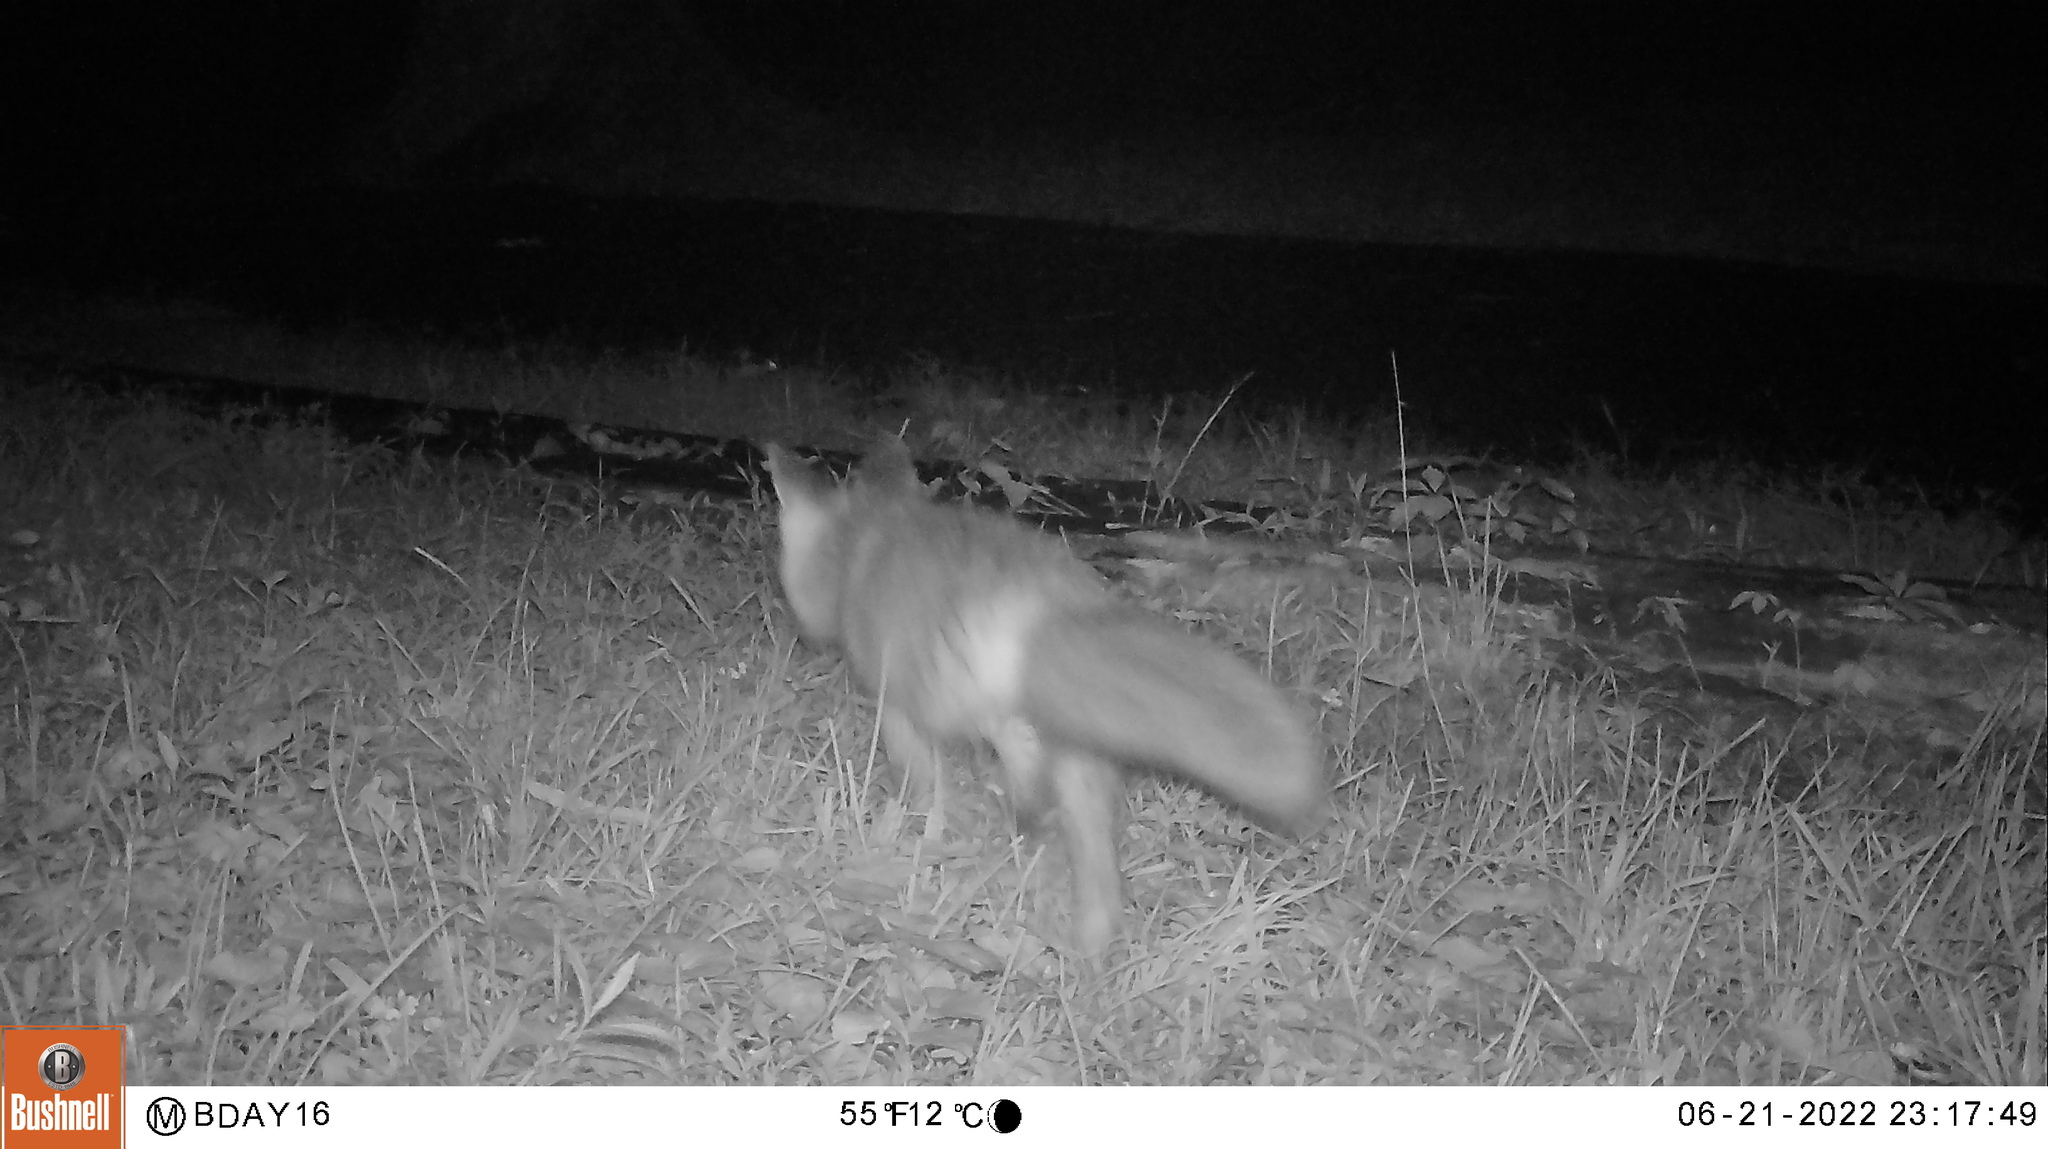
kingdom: Animalia
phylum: Chordata
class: Mammalia
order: Carnivora
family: Canidae
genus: Vulpes
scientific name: Vulpes vulpes
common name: Red fox
